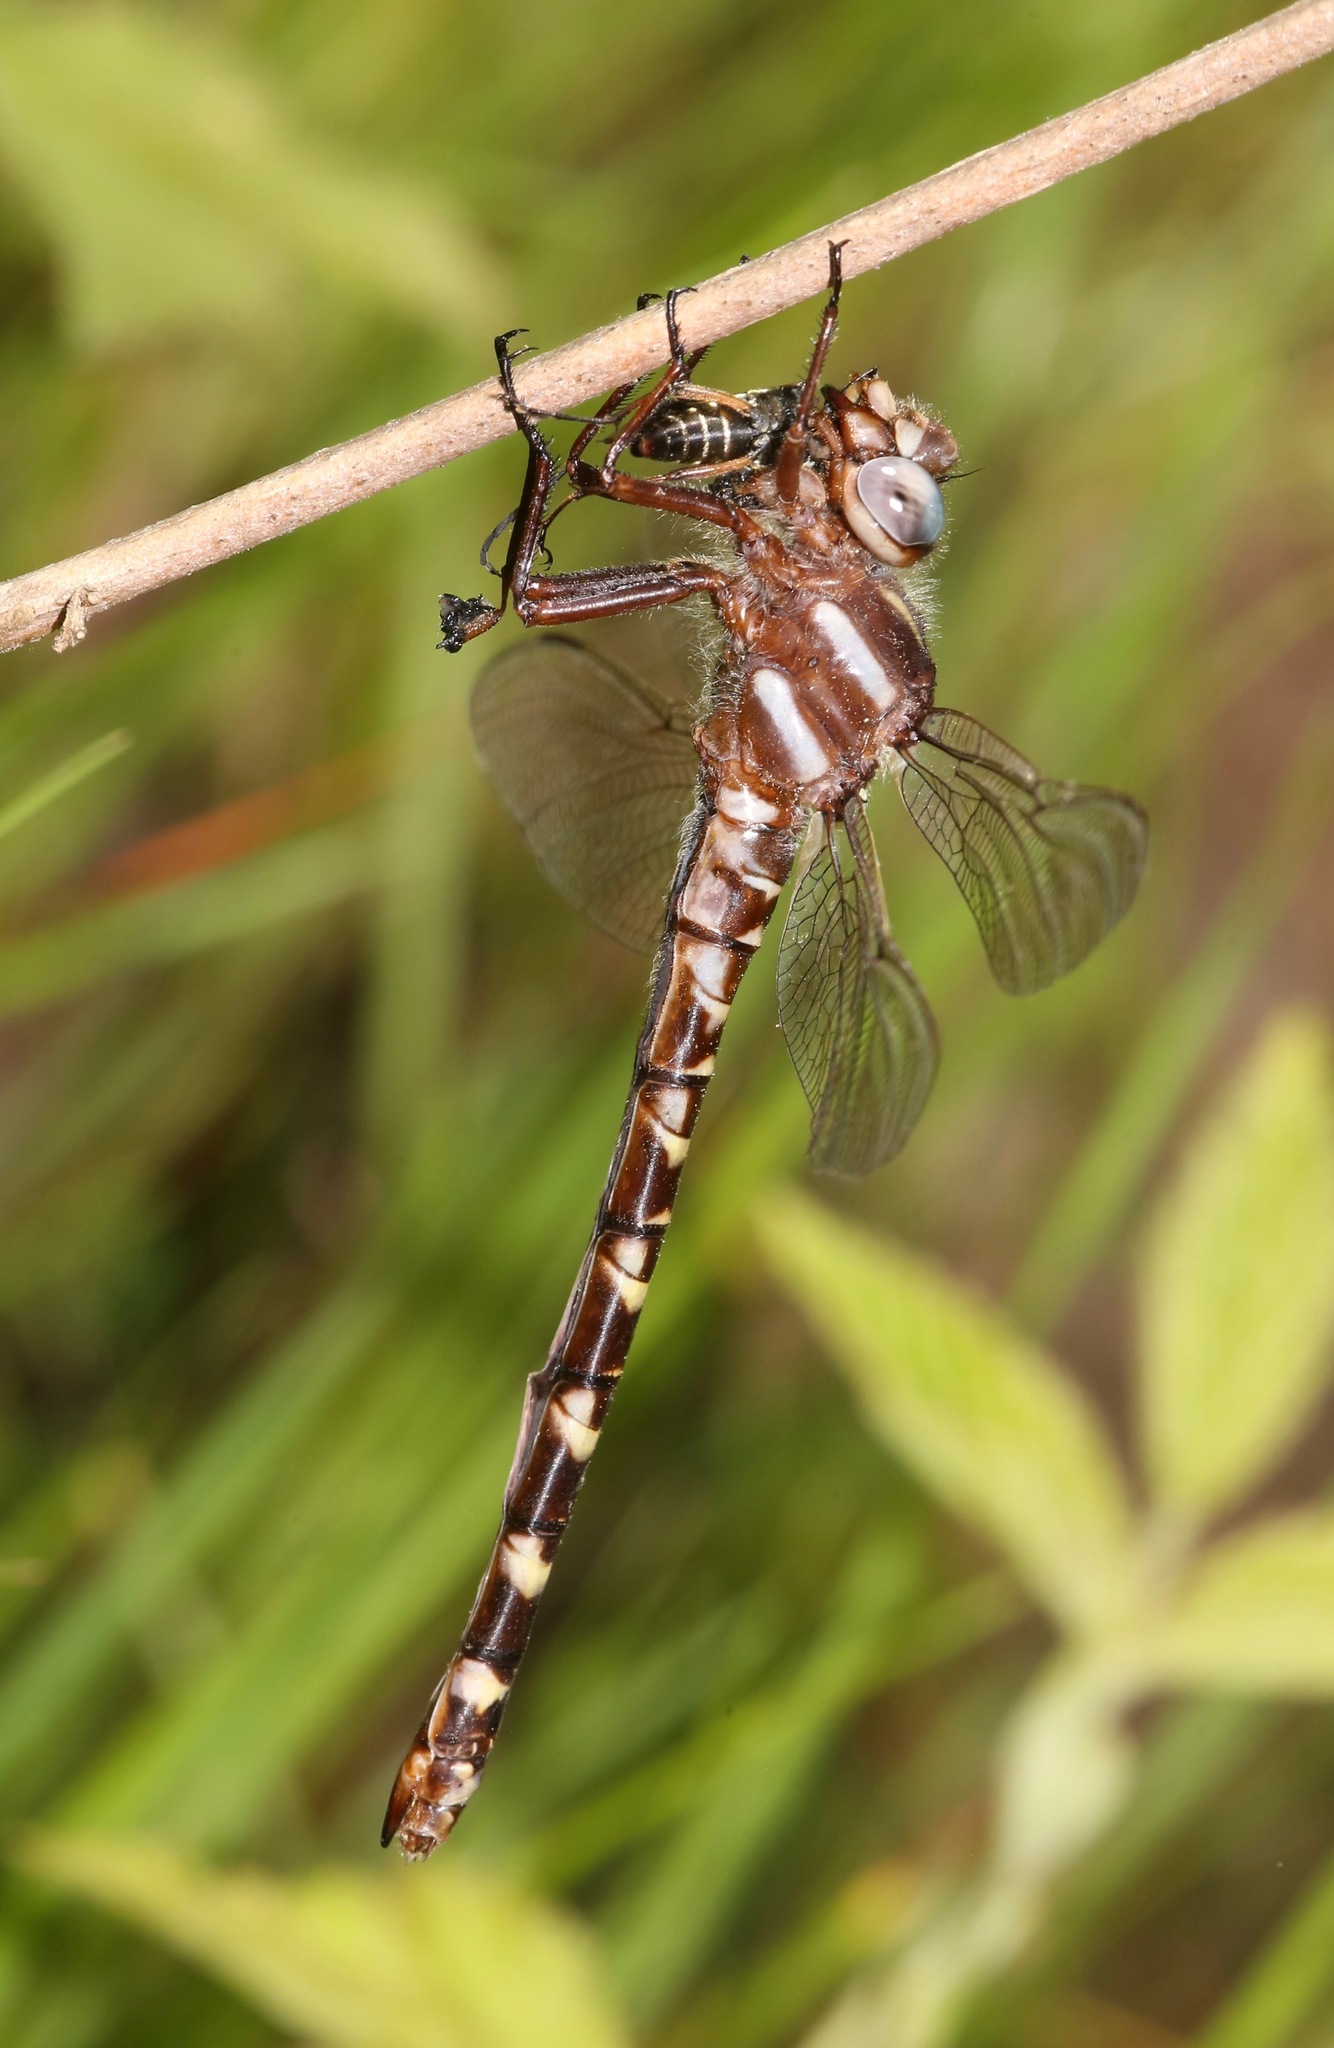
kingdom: Animalia
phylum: Arthropoda
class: Insecta
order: Odonata
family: Cordulegastridae
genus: Cordulegaster
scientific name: Cordulegaster sarracenia
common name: Sarracenia spiketail
